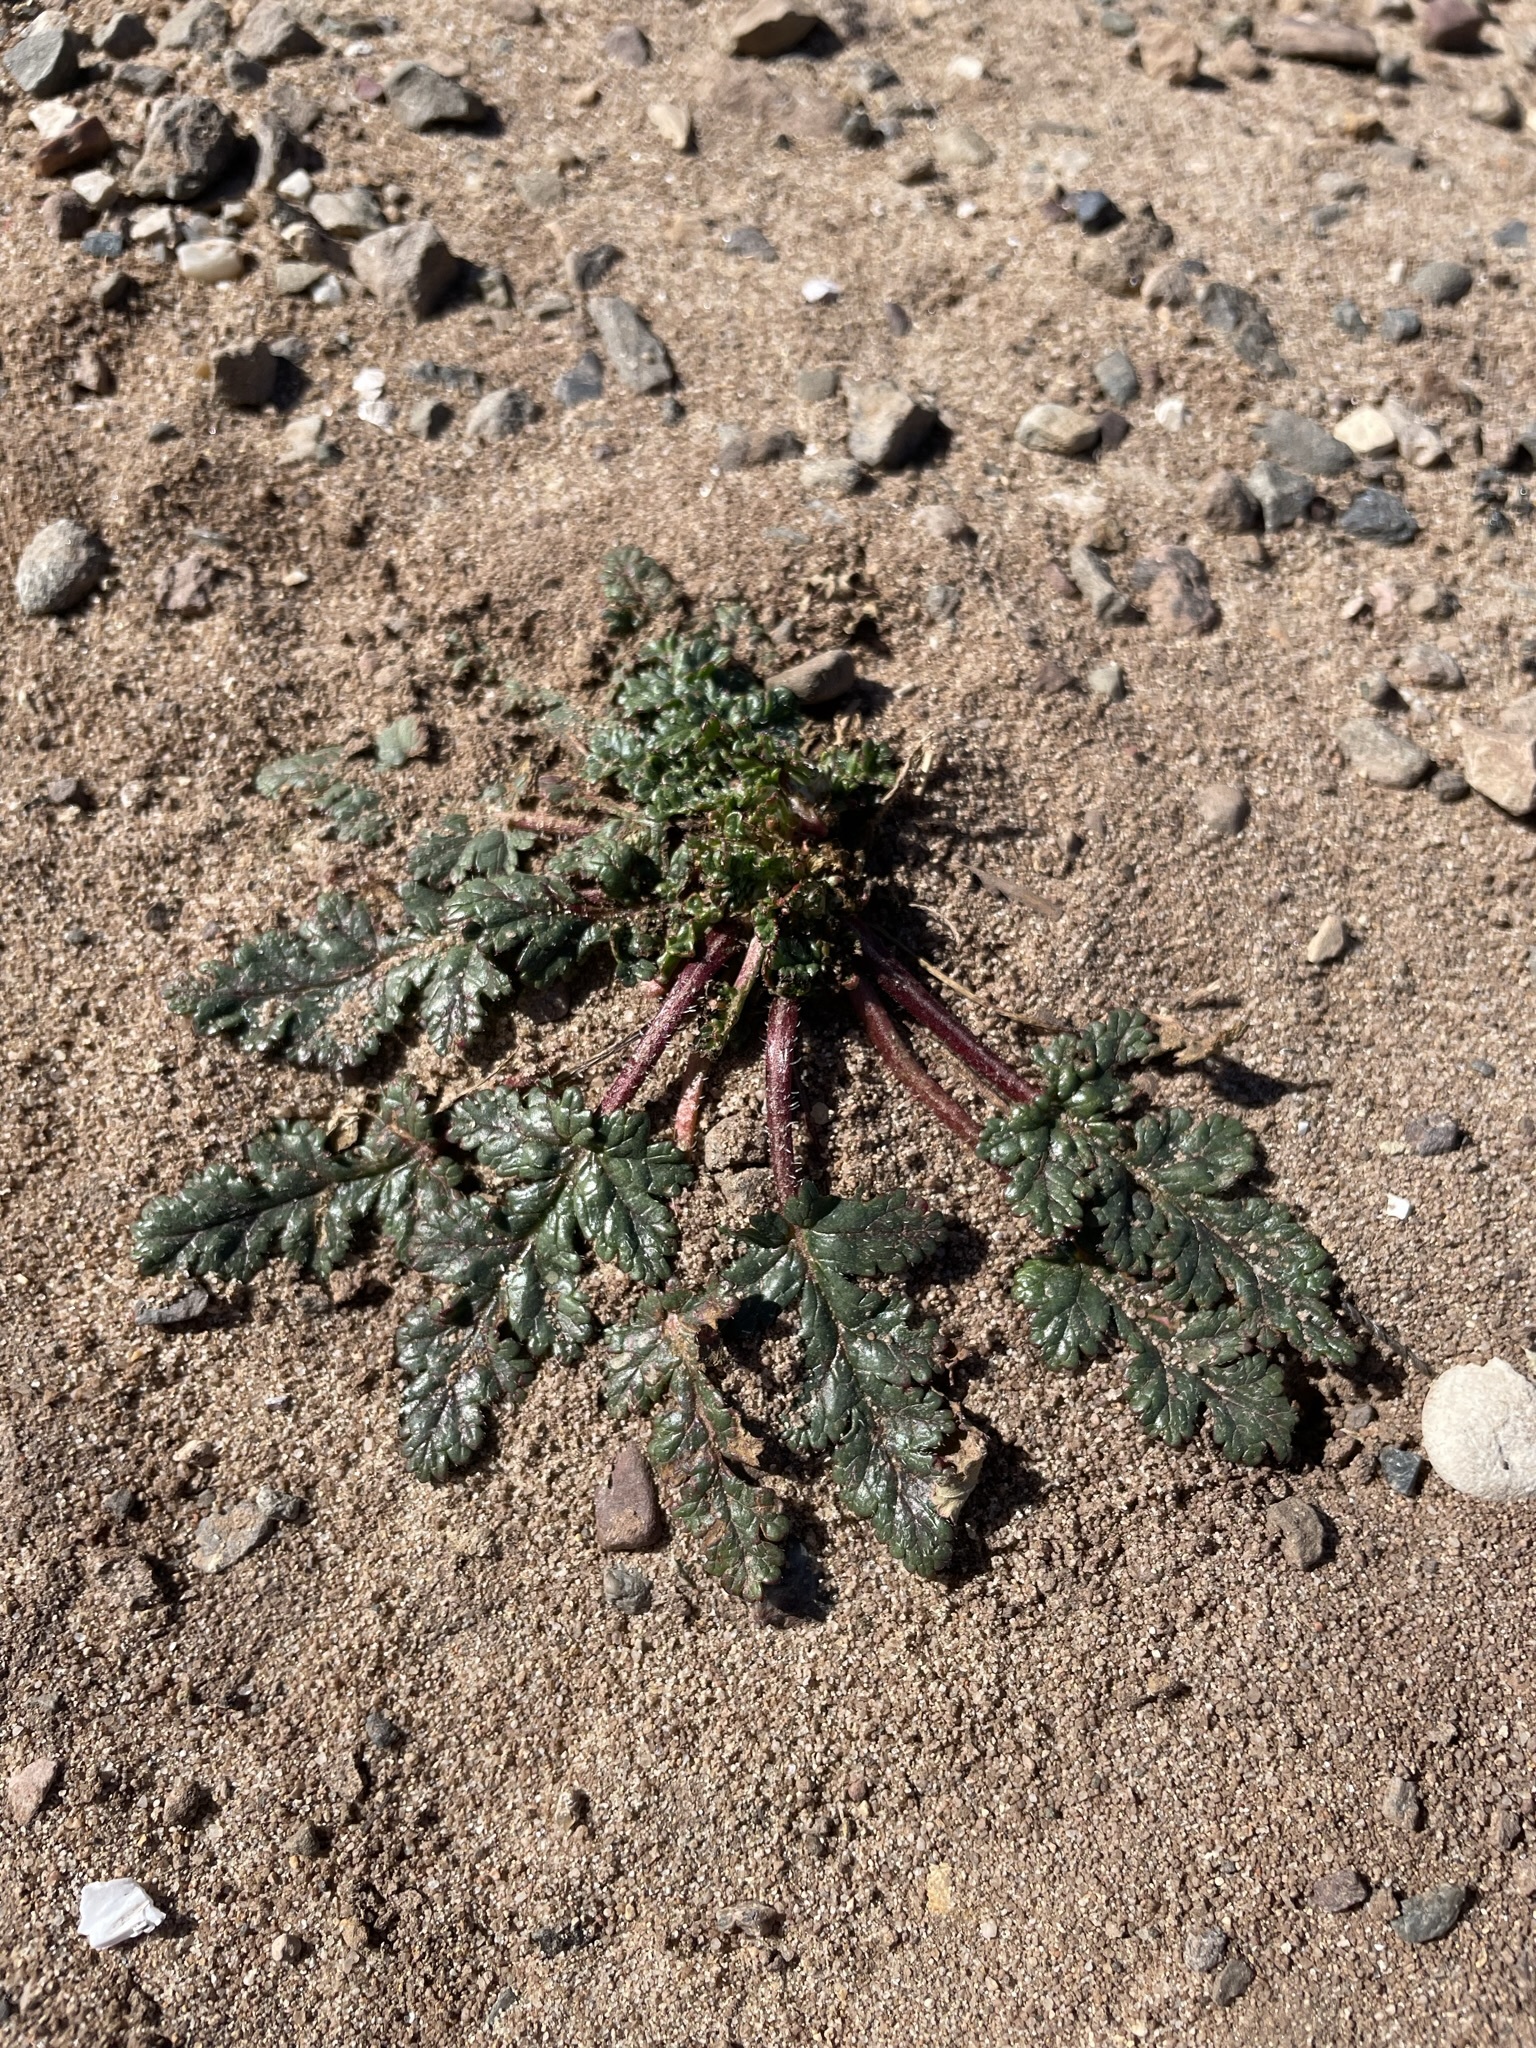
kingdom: Plantae
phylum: Tracheophyta
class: Magnoliopsida
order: Geraniales
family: Geraniaceae
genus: Erodium
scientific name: Erodium
